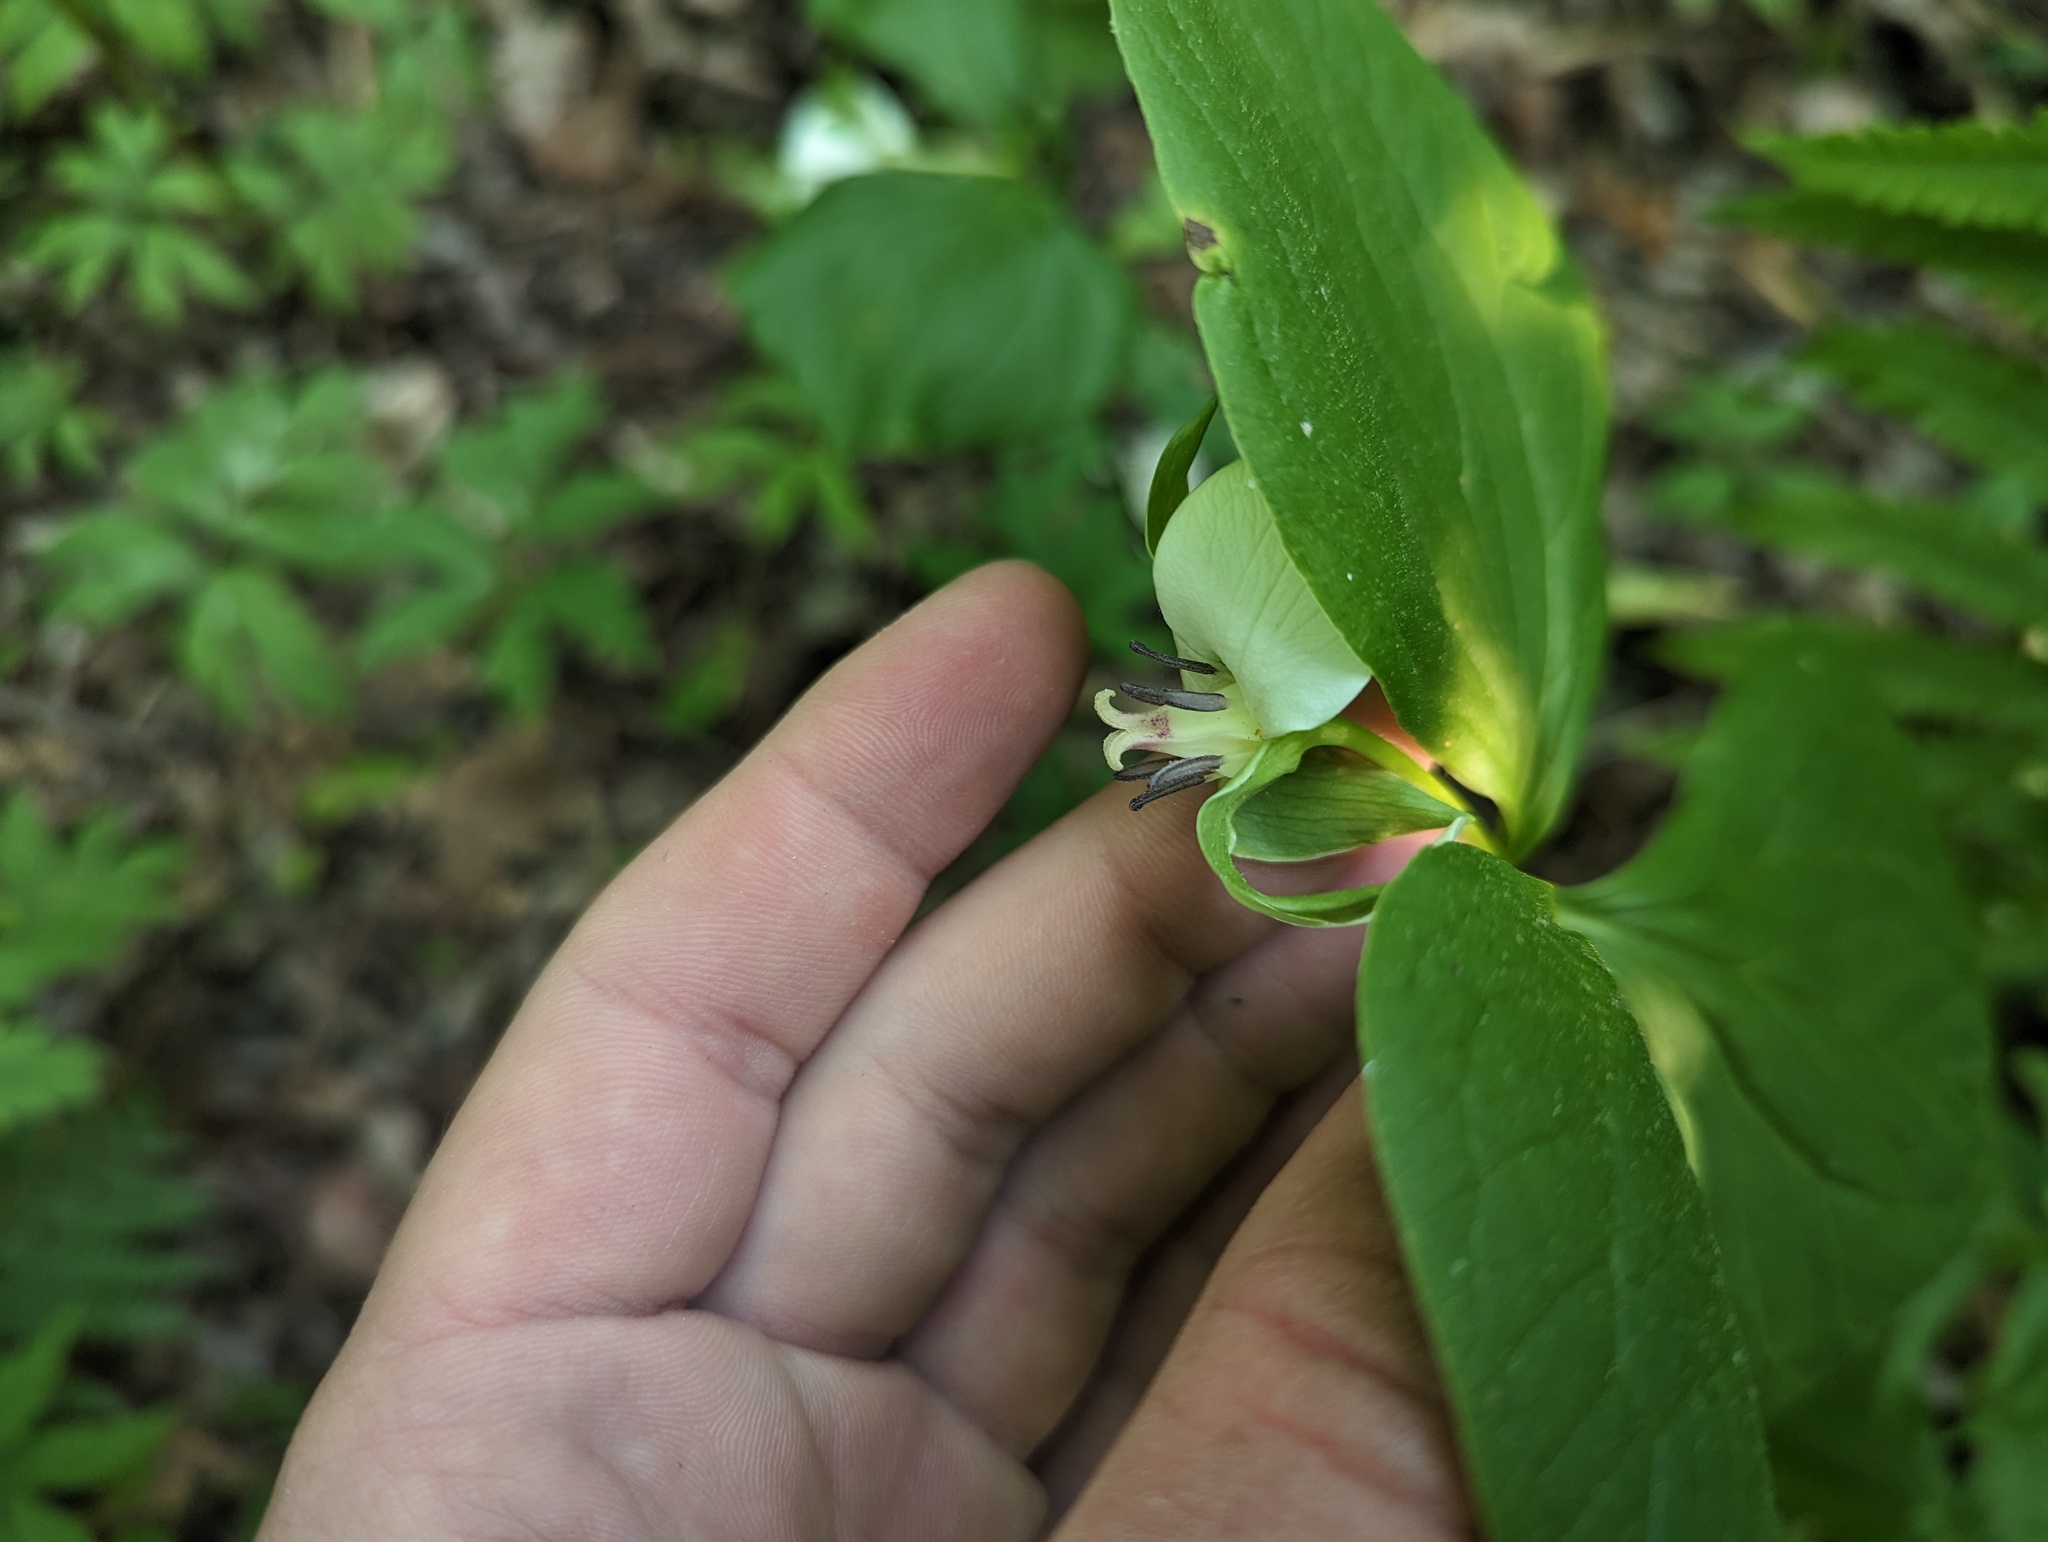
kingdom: Plantae
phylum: Tracheophyta
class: Liliopsida
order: Liliales
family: Melanthiaceae
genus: Trillium
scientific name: Trillium cernuum
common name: Nodding trillium
